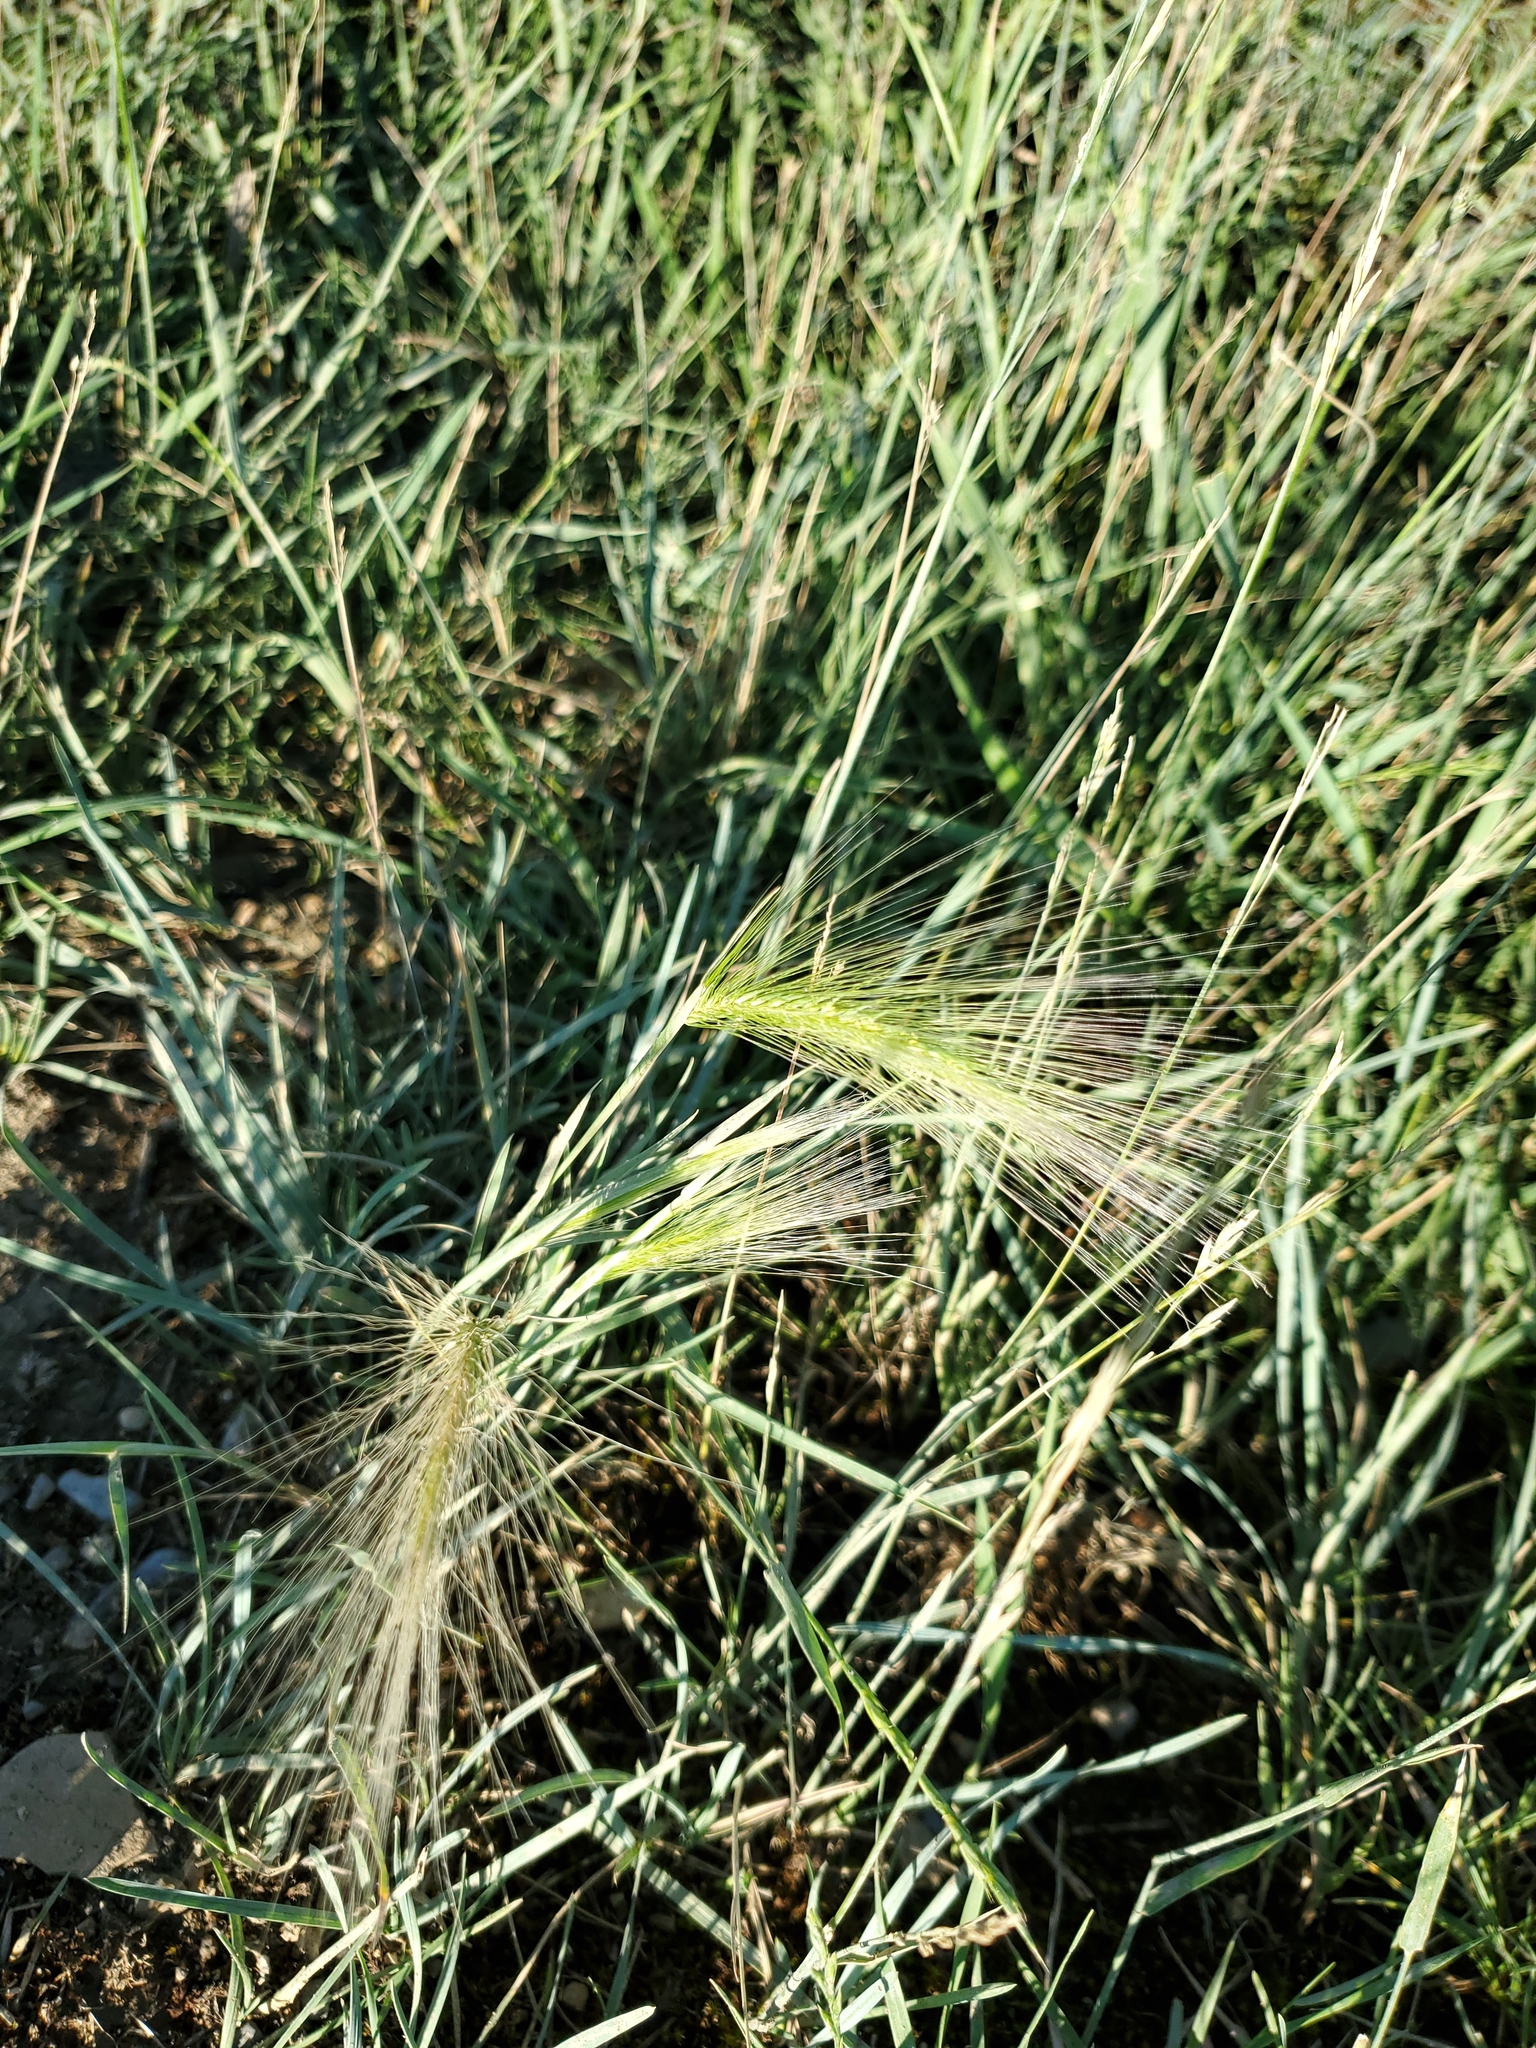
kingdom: Plantae
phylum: Tracheophyta
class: Liliopsida
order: Poales
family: Poaceae
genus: Hordeum
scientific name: Hordeum jubatum
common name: Foxtail barley
